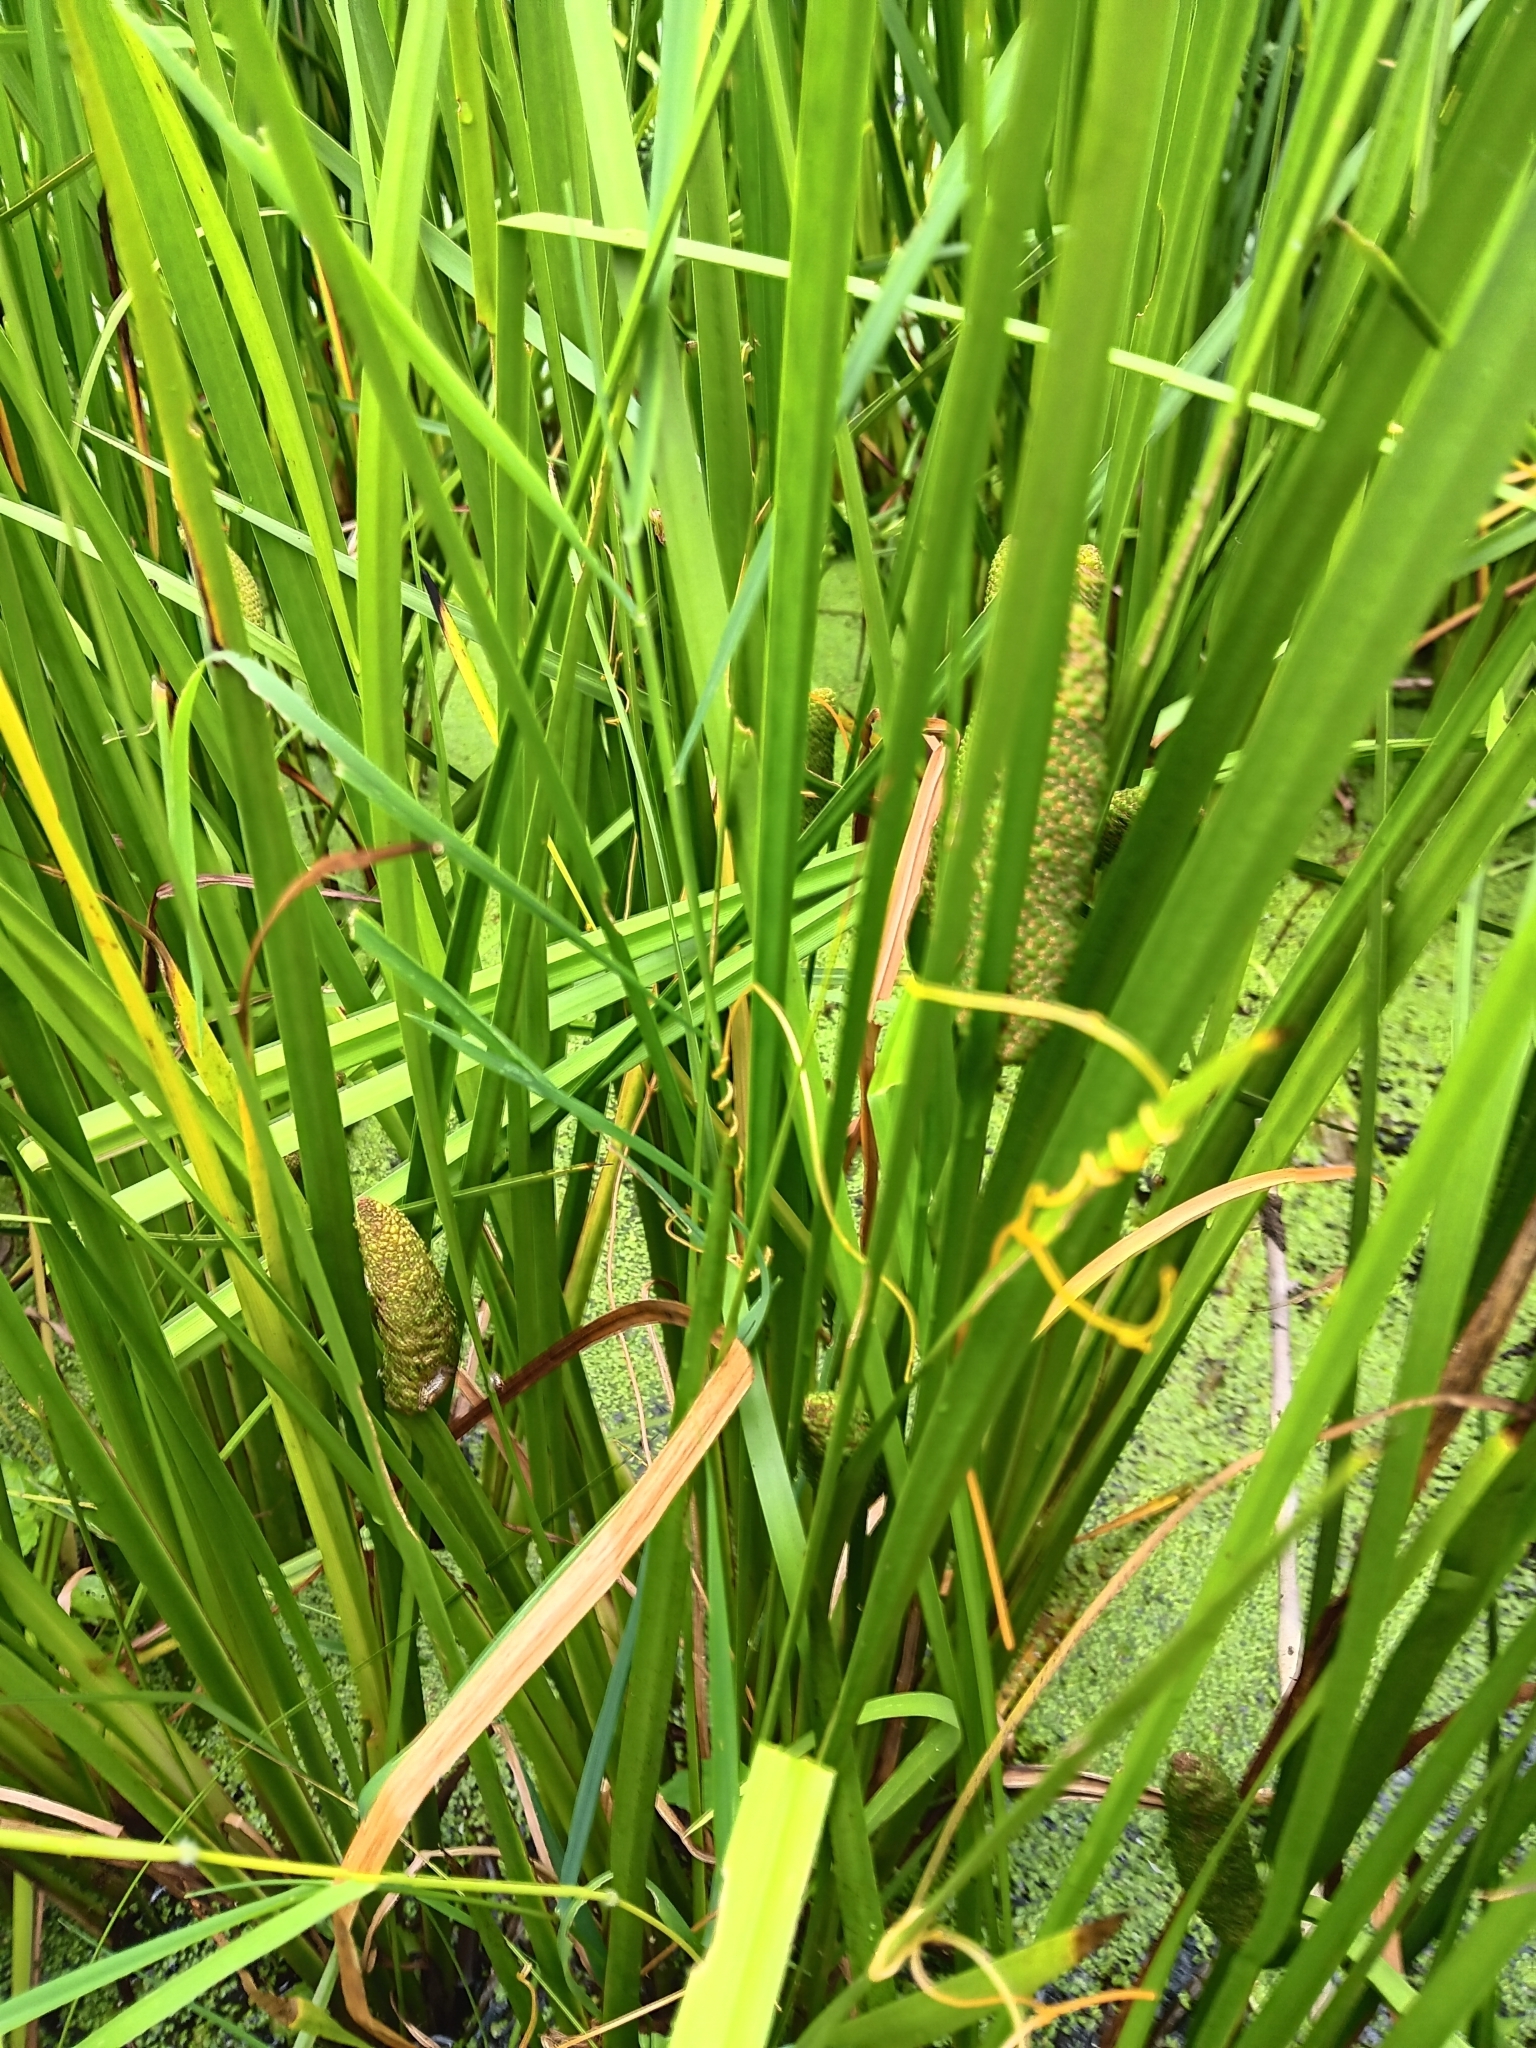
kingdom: Plantae
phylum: Tracheophyta
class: Liliopsida
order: Acorales
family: Acoraceae
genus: Acorus
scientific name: Acorus calamus
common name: Sweet-flag
